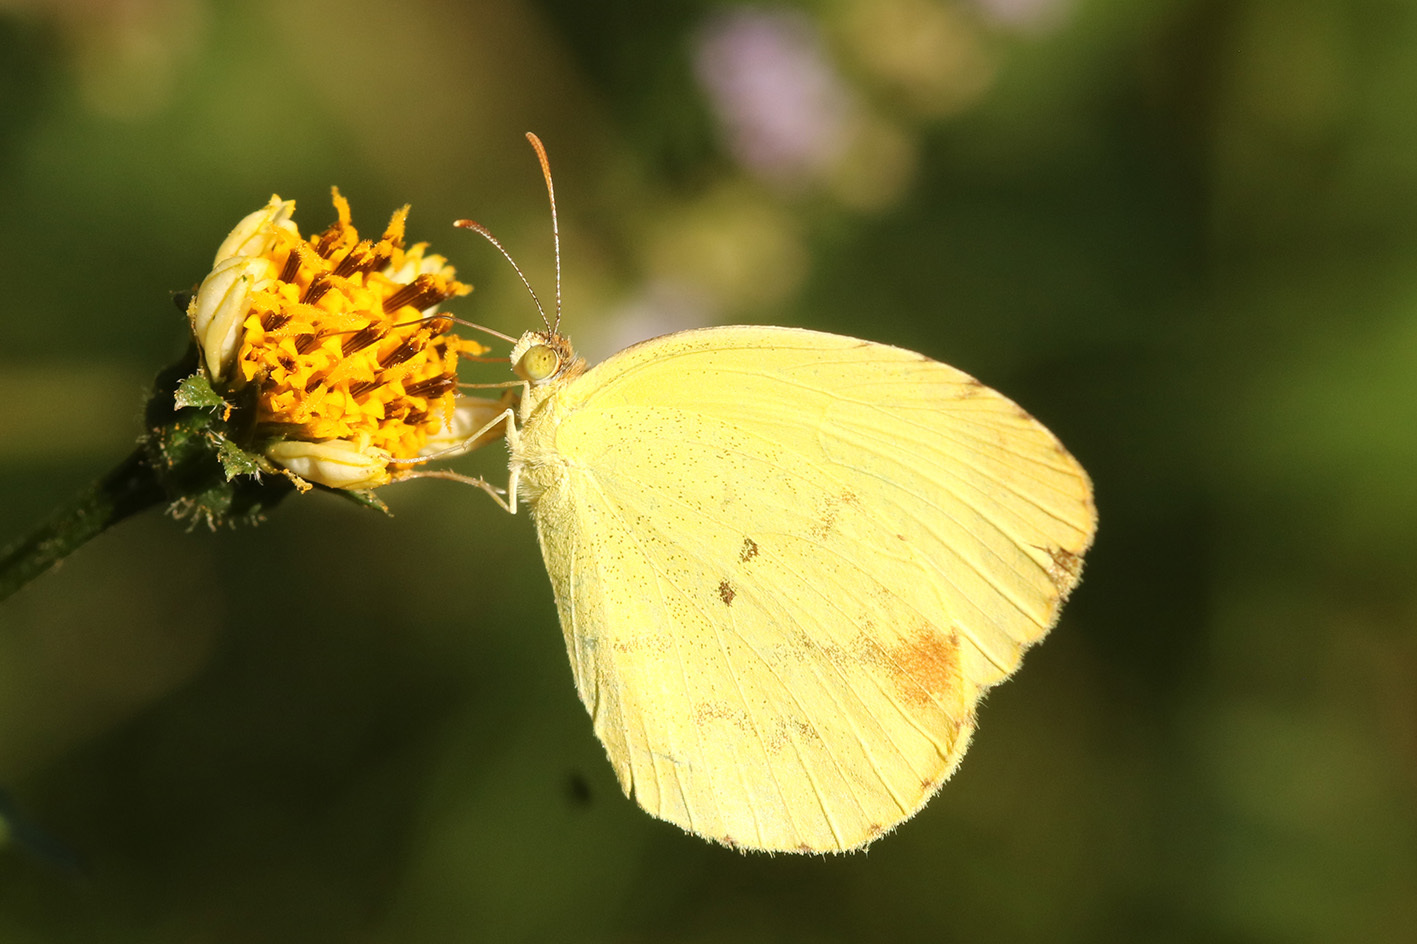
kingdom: Animalia
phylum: Arthropoda
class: Insecta
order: Lepidoptera
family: Pieridae
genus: Pyrisitia
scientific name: Pyrisitia nise
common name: Mimosa yellow
